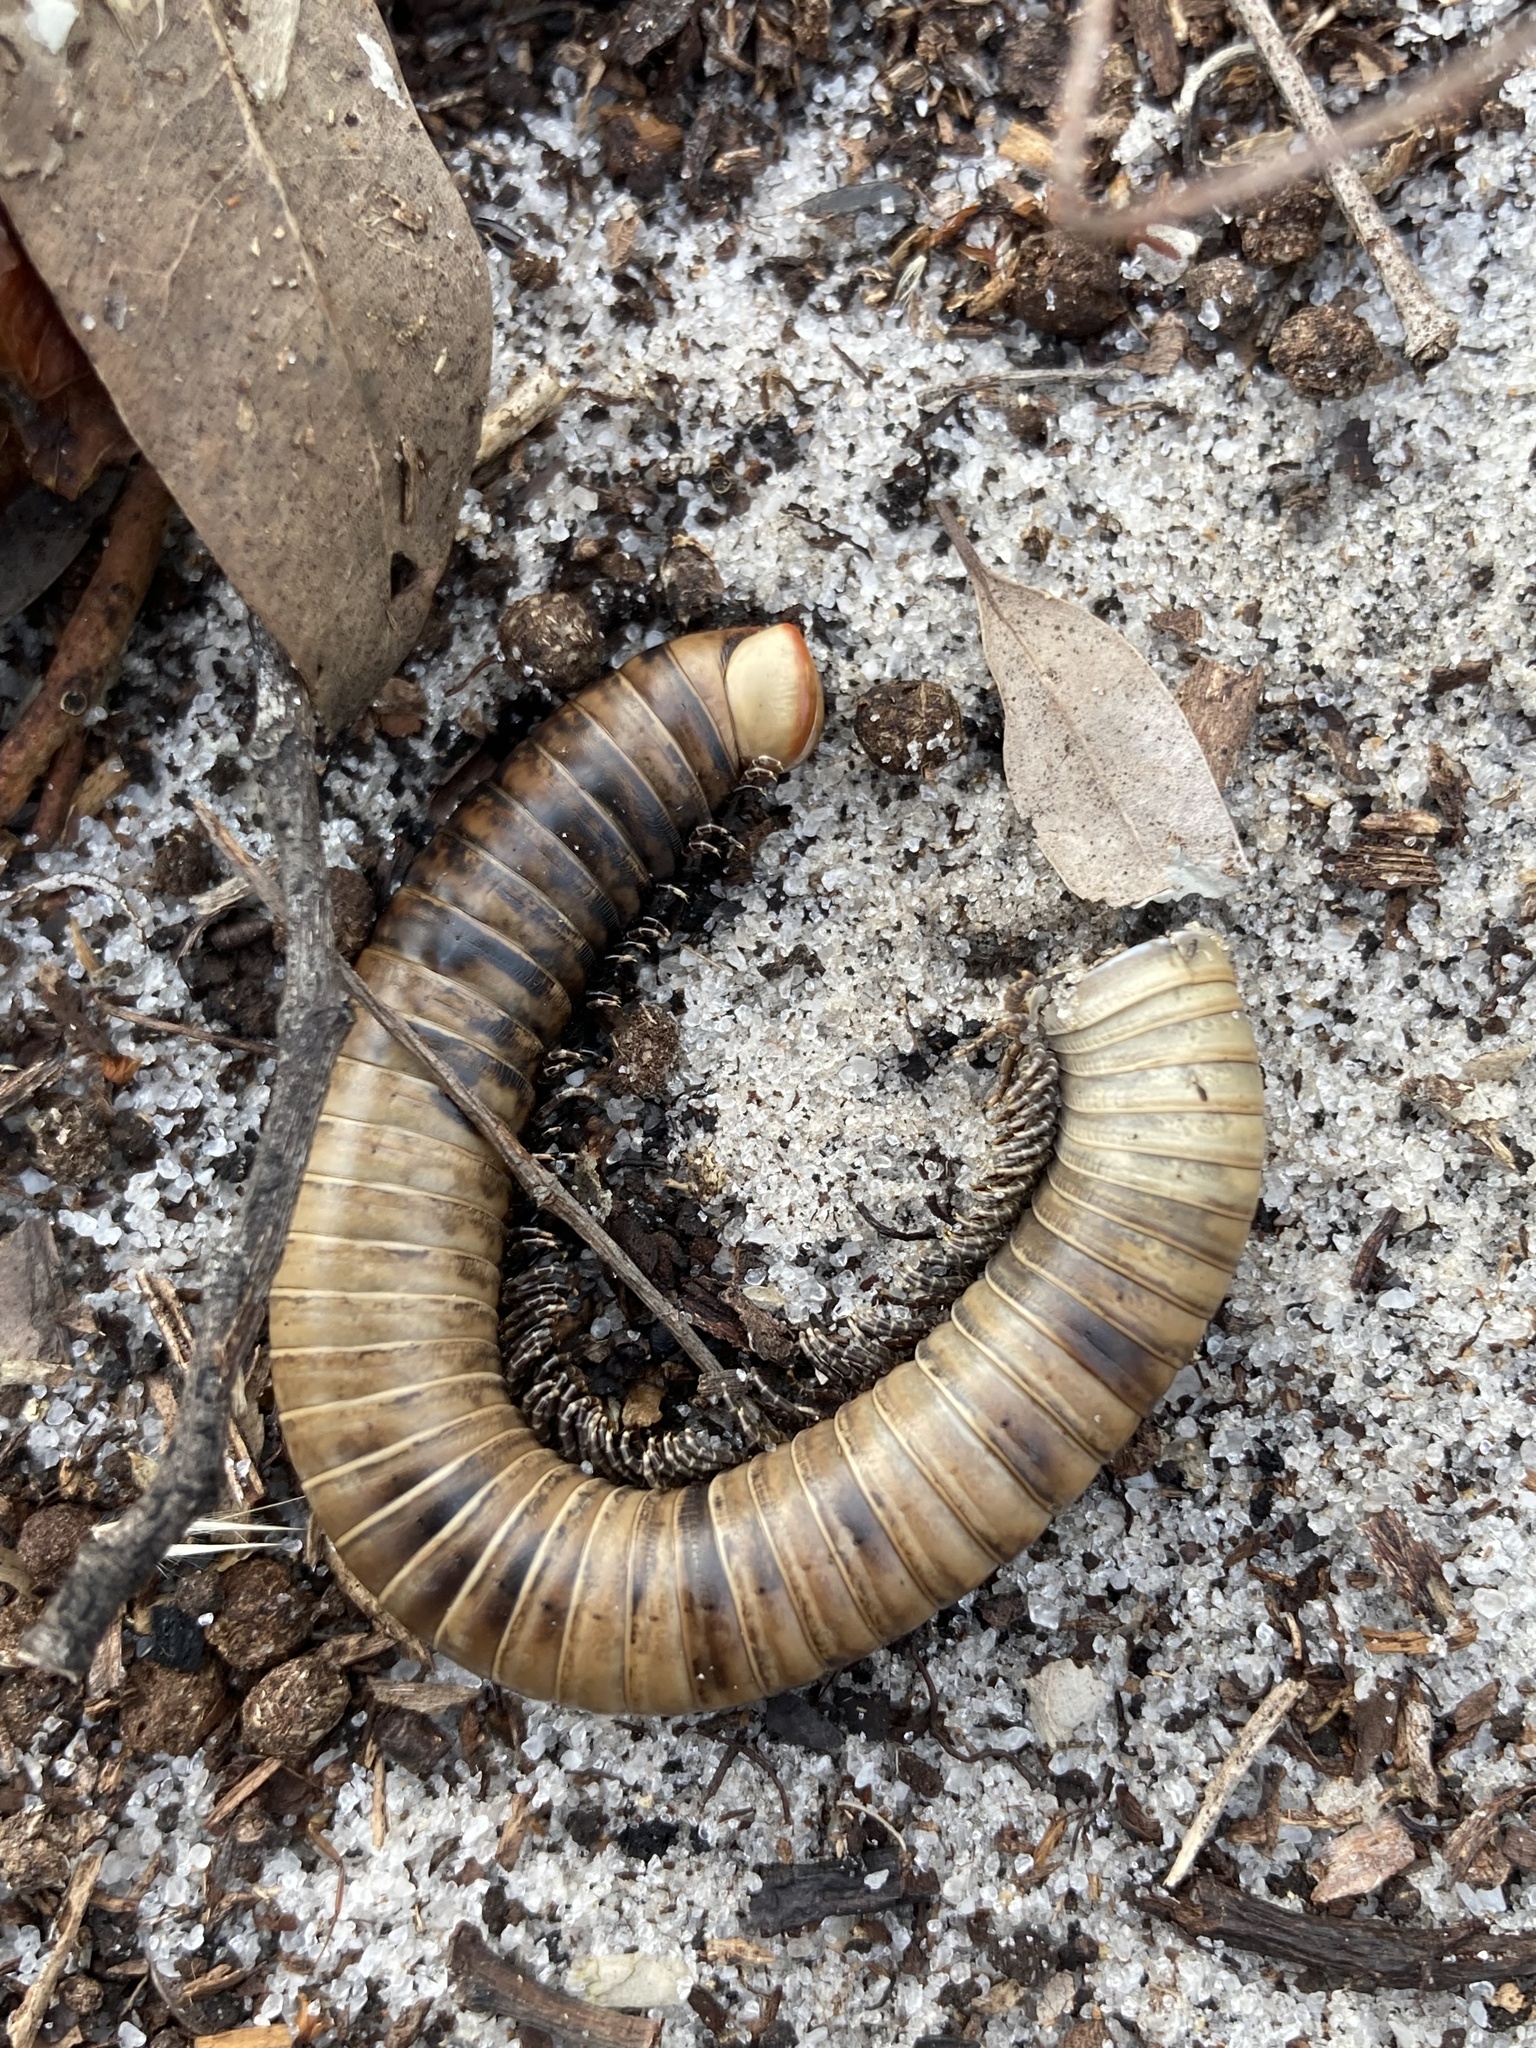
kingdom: Animalia
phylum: Arthropoda
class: Diplopoda
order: Spirobolida
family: Spirobolidae
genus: Narceus
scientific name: Narceus gordanus
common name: Grayish-green millipede
